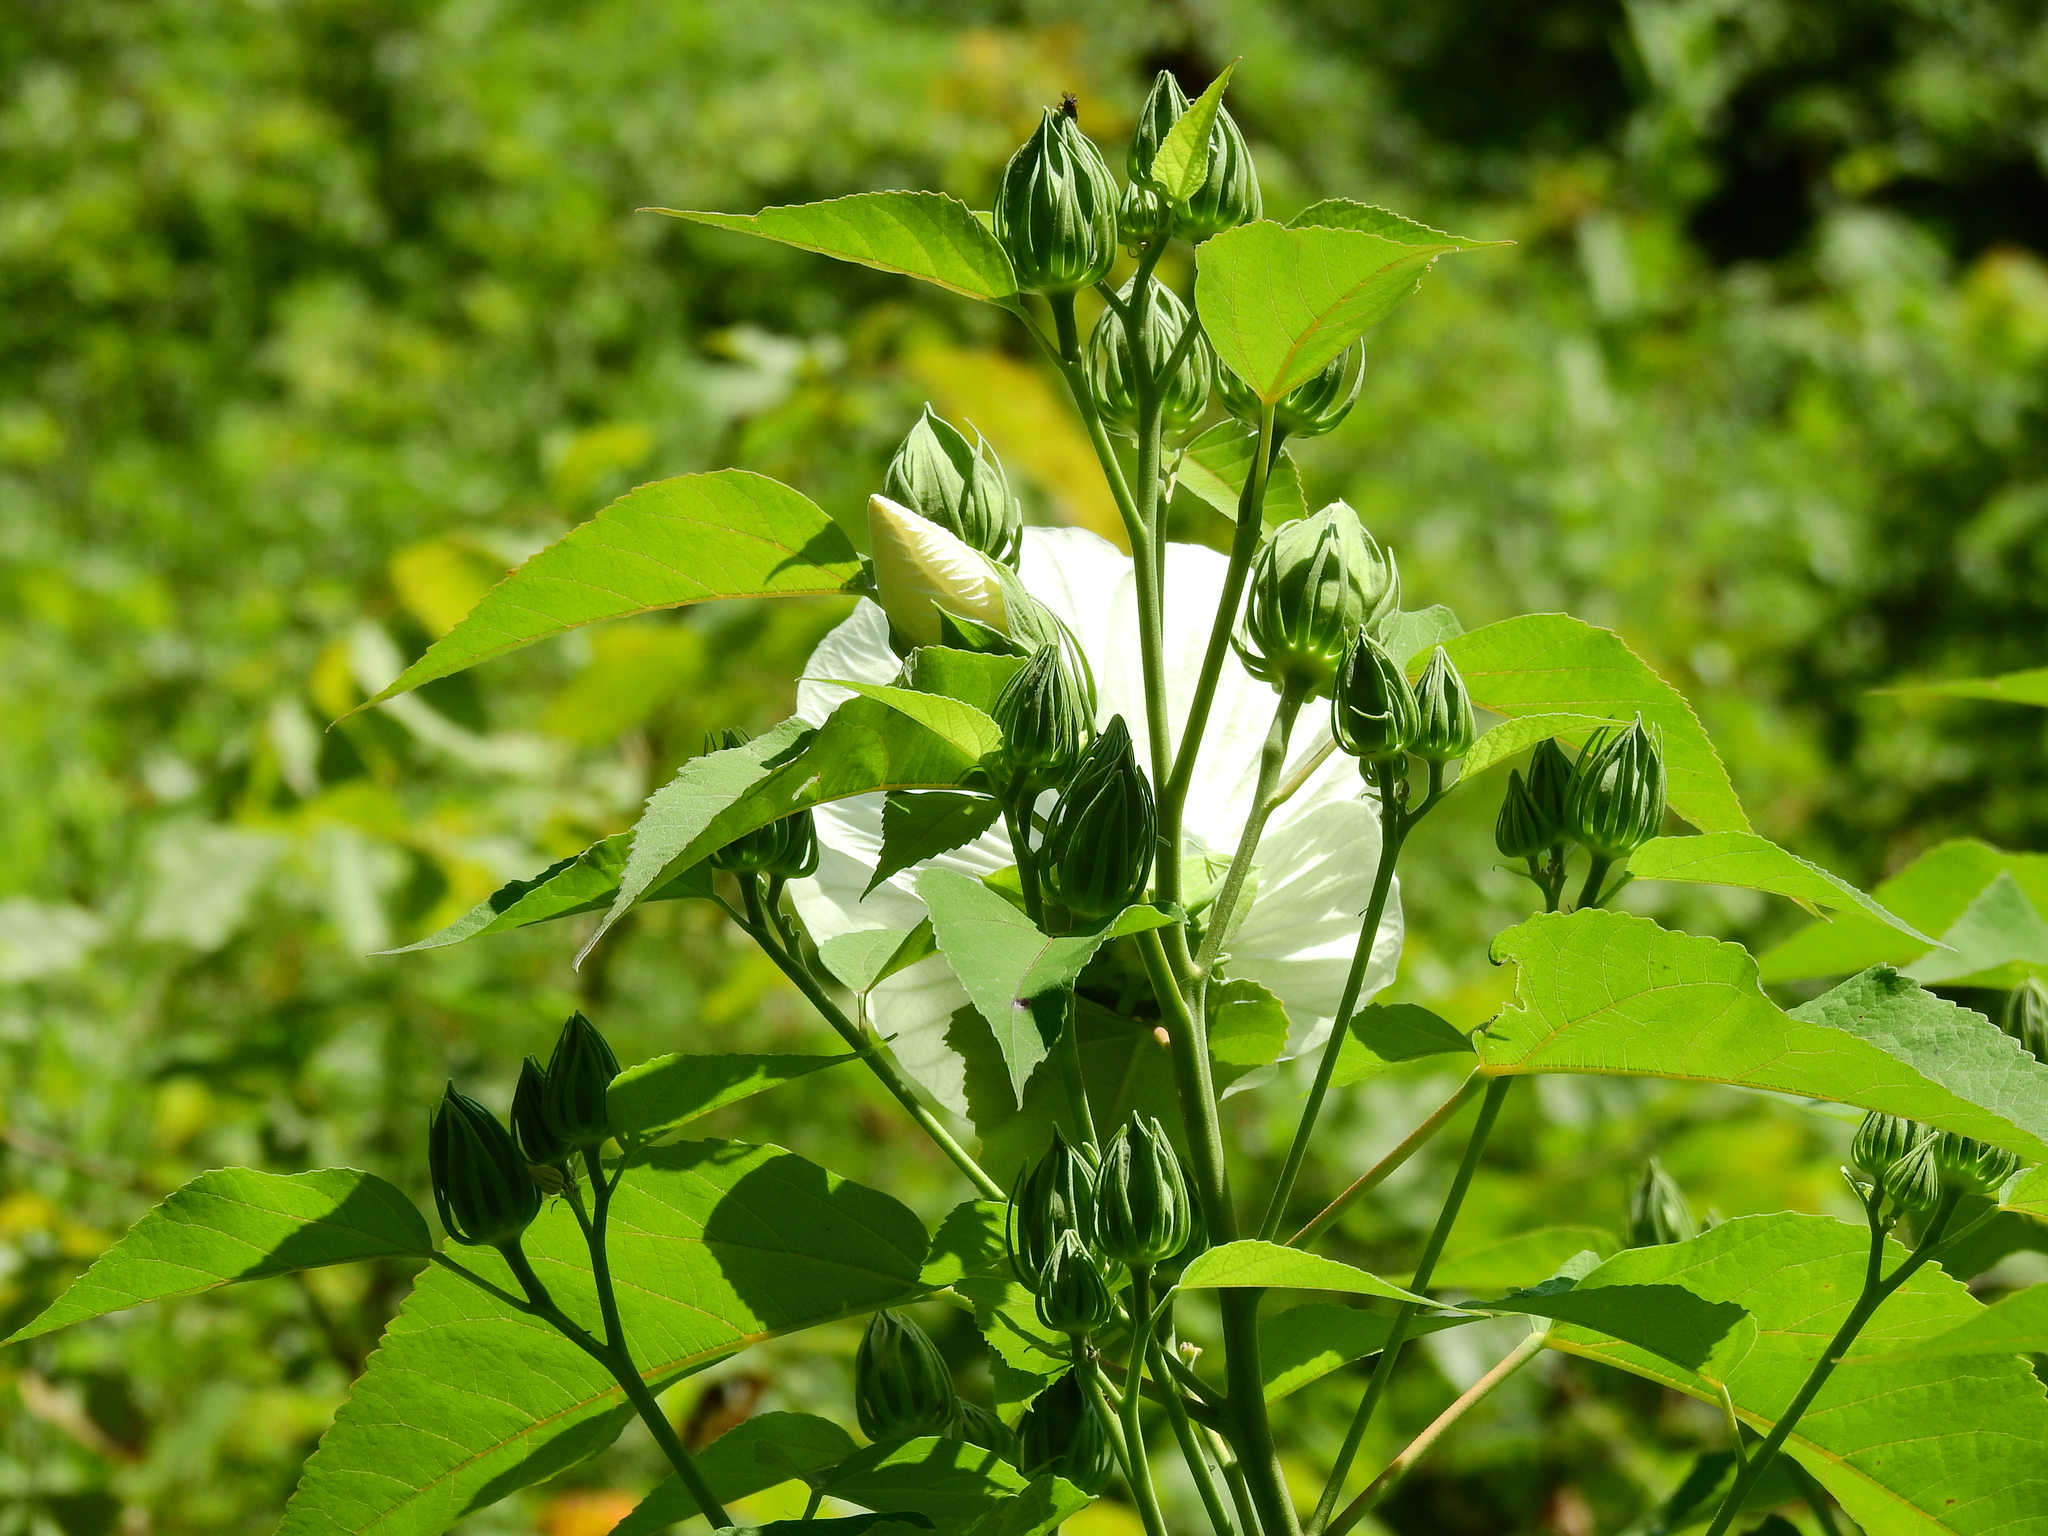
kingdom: Plantae
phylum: Tracheophyta
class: Magnoliopsida
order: Malvales
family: Malvaceae
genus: Hibiscus
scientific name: Hibiscus moscheutos
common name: Common rose-mallow
